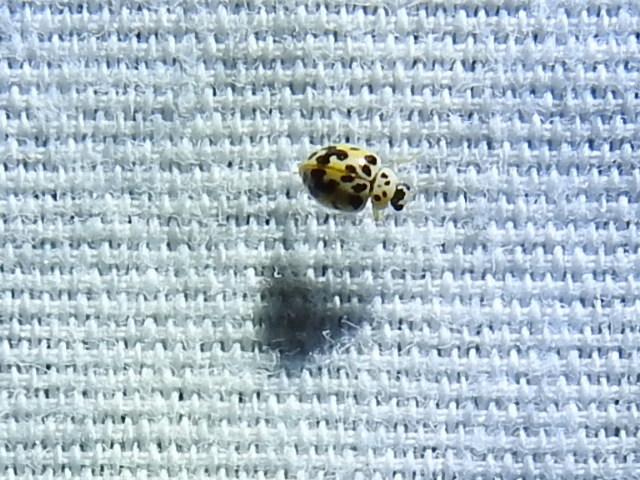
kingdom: Animalia
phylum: Arthropoda
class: Insecta
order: Coleoptera
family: Coccinellidae
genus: Psyllobora
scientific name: Psyllobora vigintimaculata
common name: Ladybird beetle
